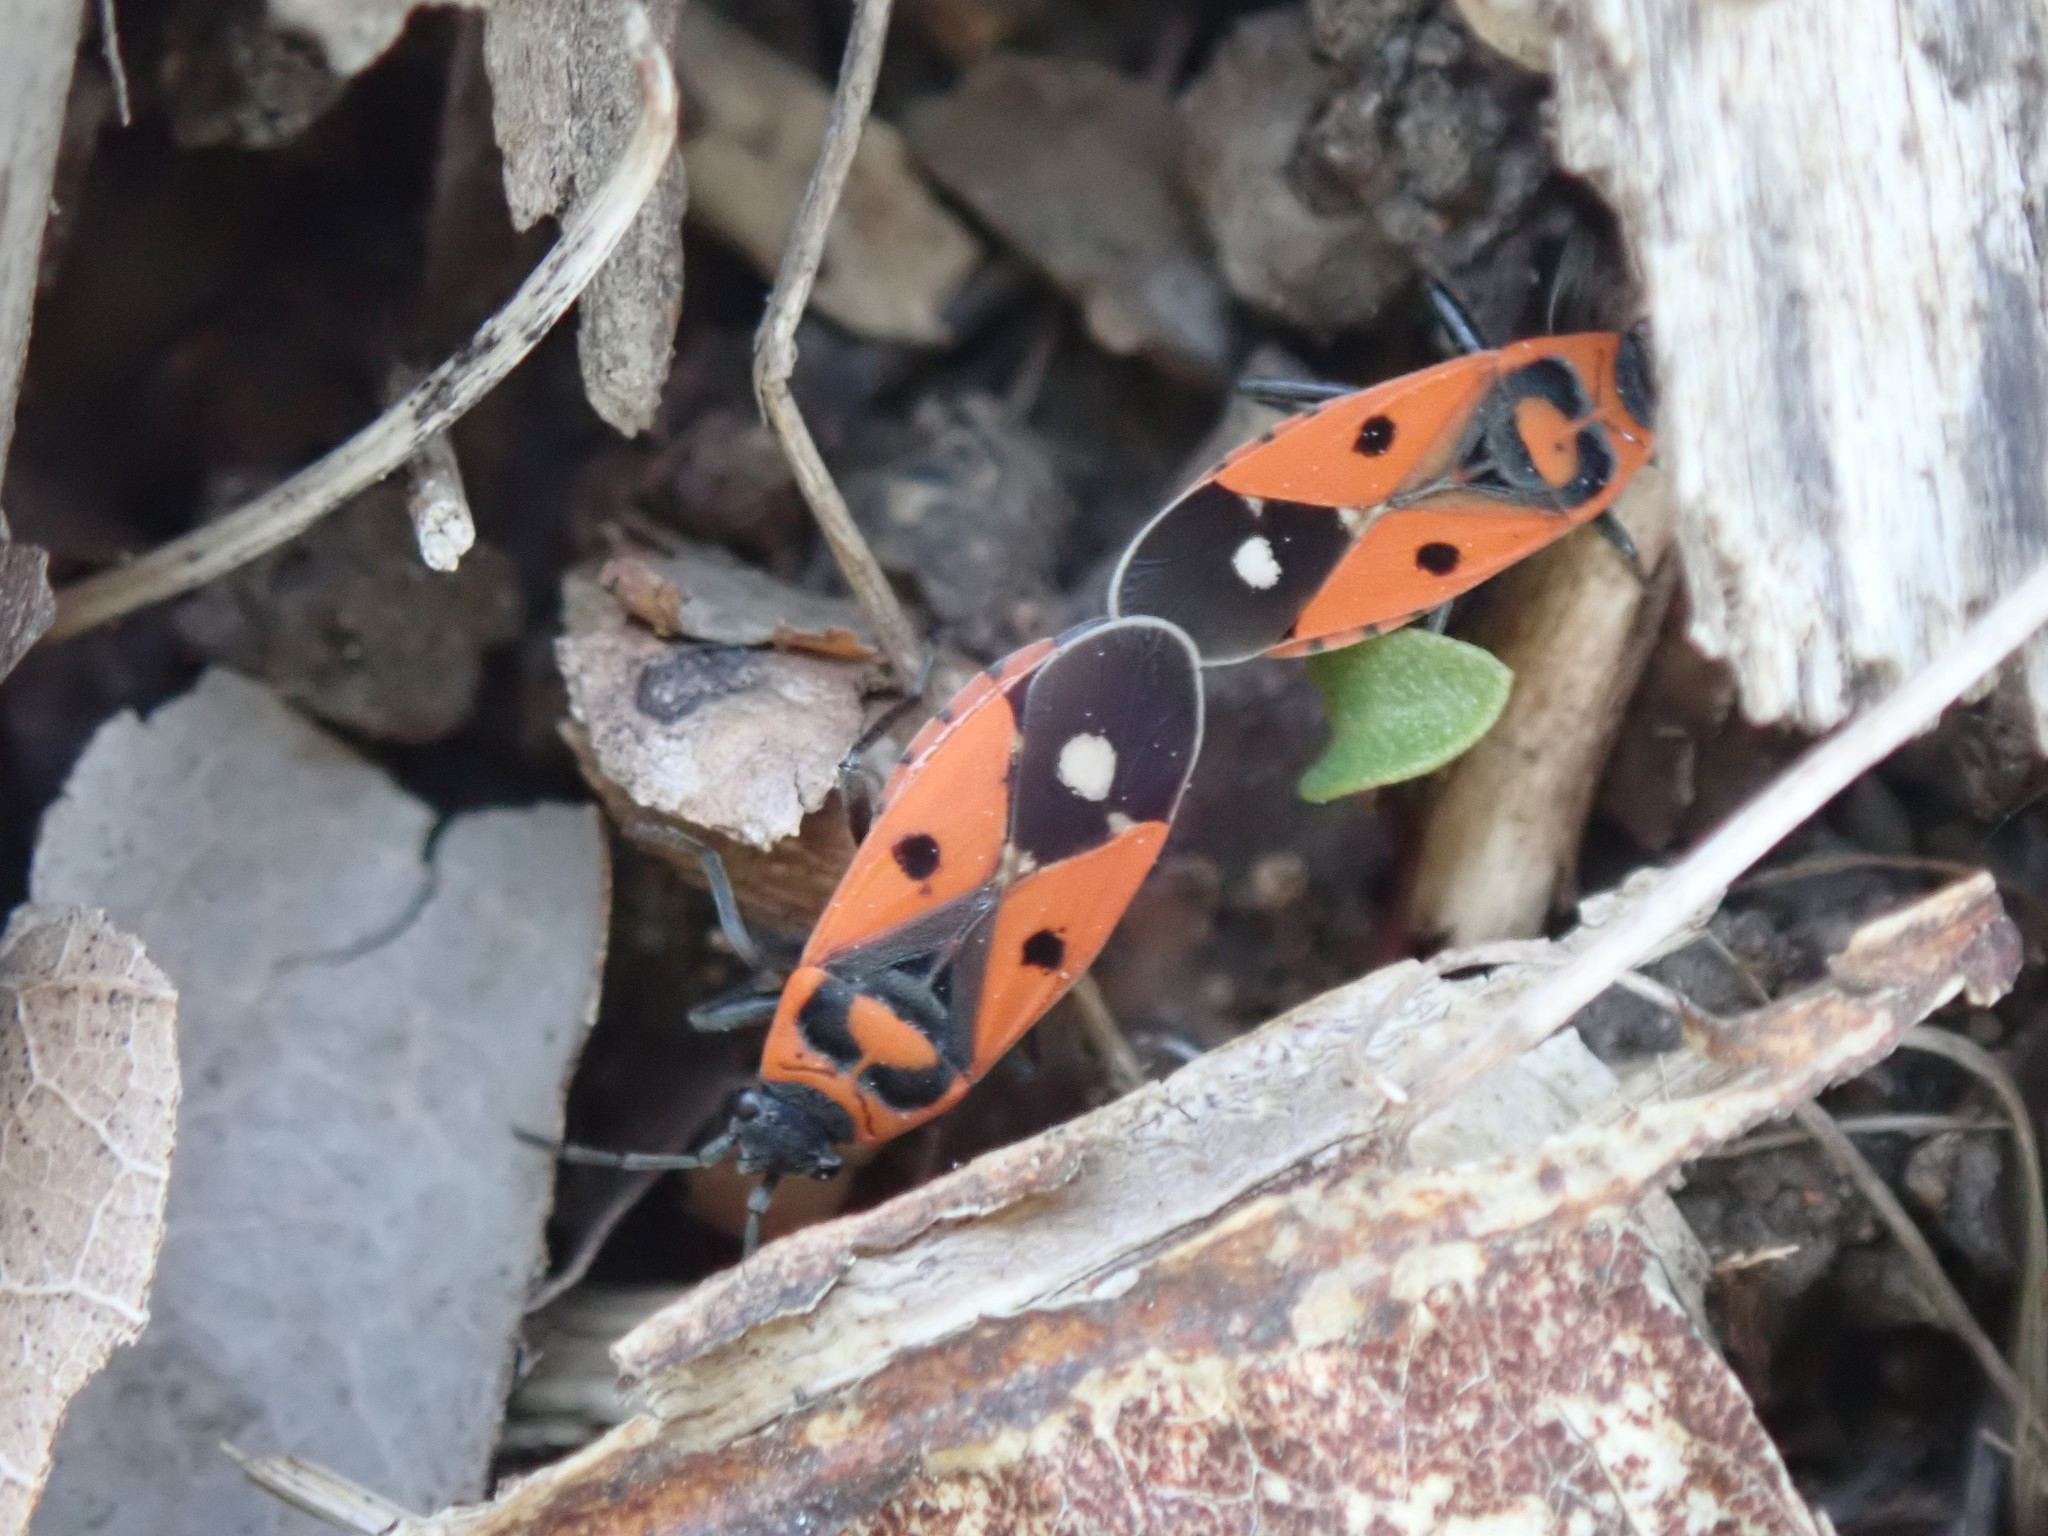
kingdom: Animalia
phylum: Arthropoda
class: Insecta
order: Hemiptera
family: Lygaeidae
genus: Melanocoryphus
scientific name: Melanocoryphus albomaculatus
